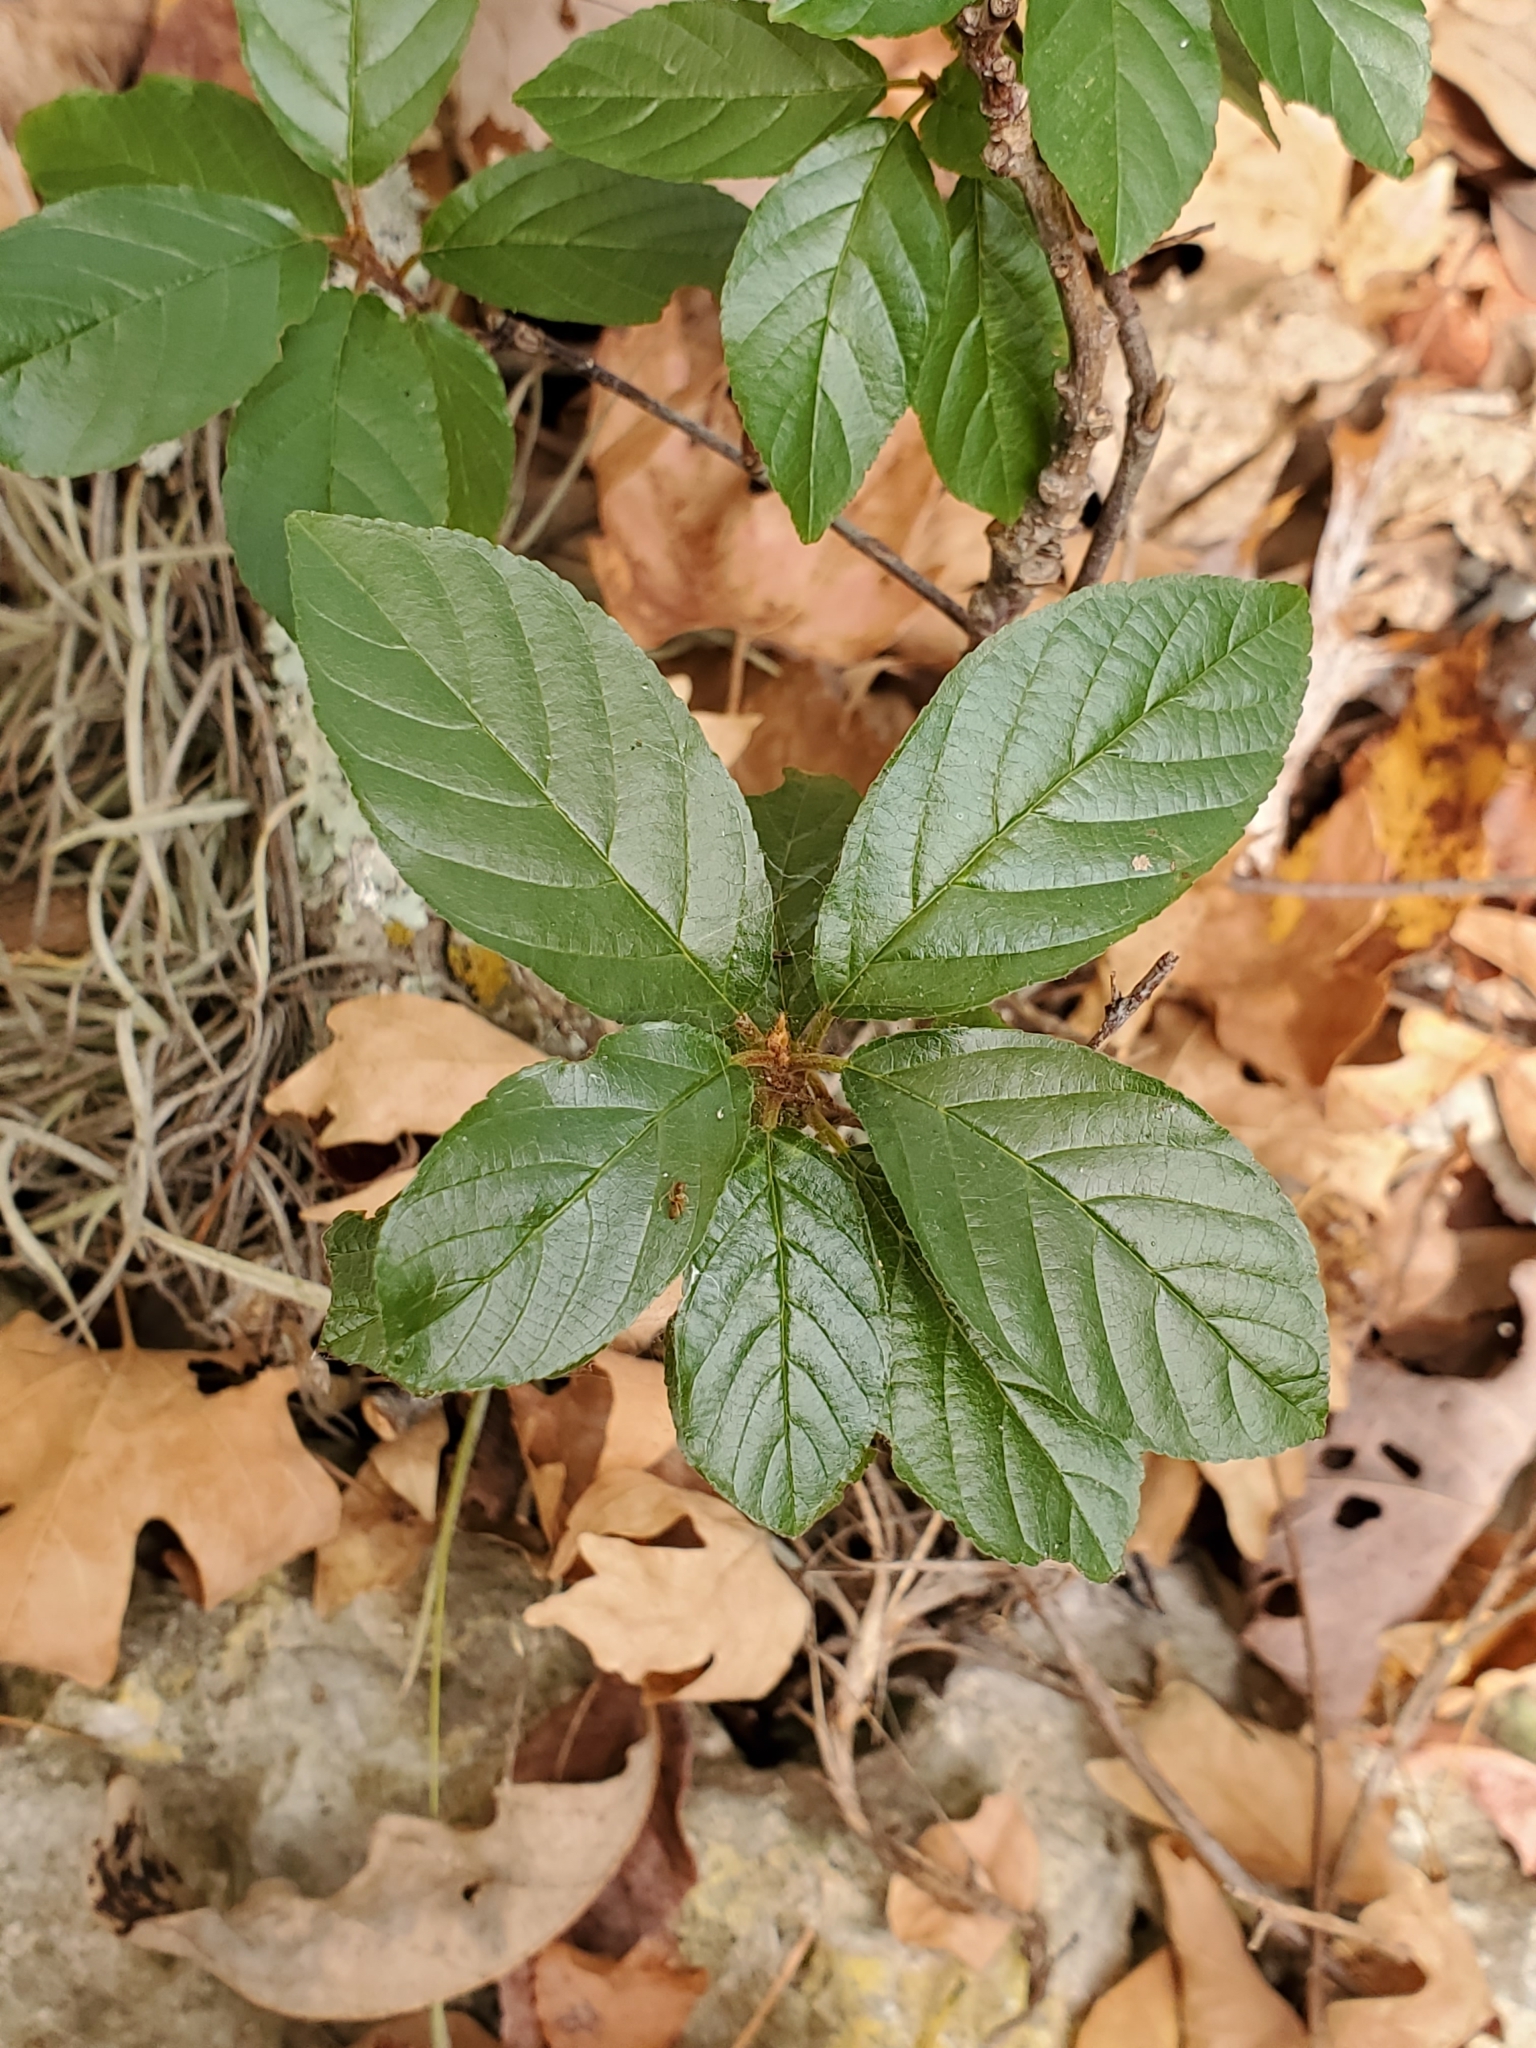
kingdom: Plantae
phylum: Tracheophyta
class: Magnoliopsida
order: Rosales
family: Rhamnaceae
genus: Frangula
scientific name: Frangula caroliniana
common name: Carolina buckthorn
